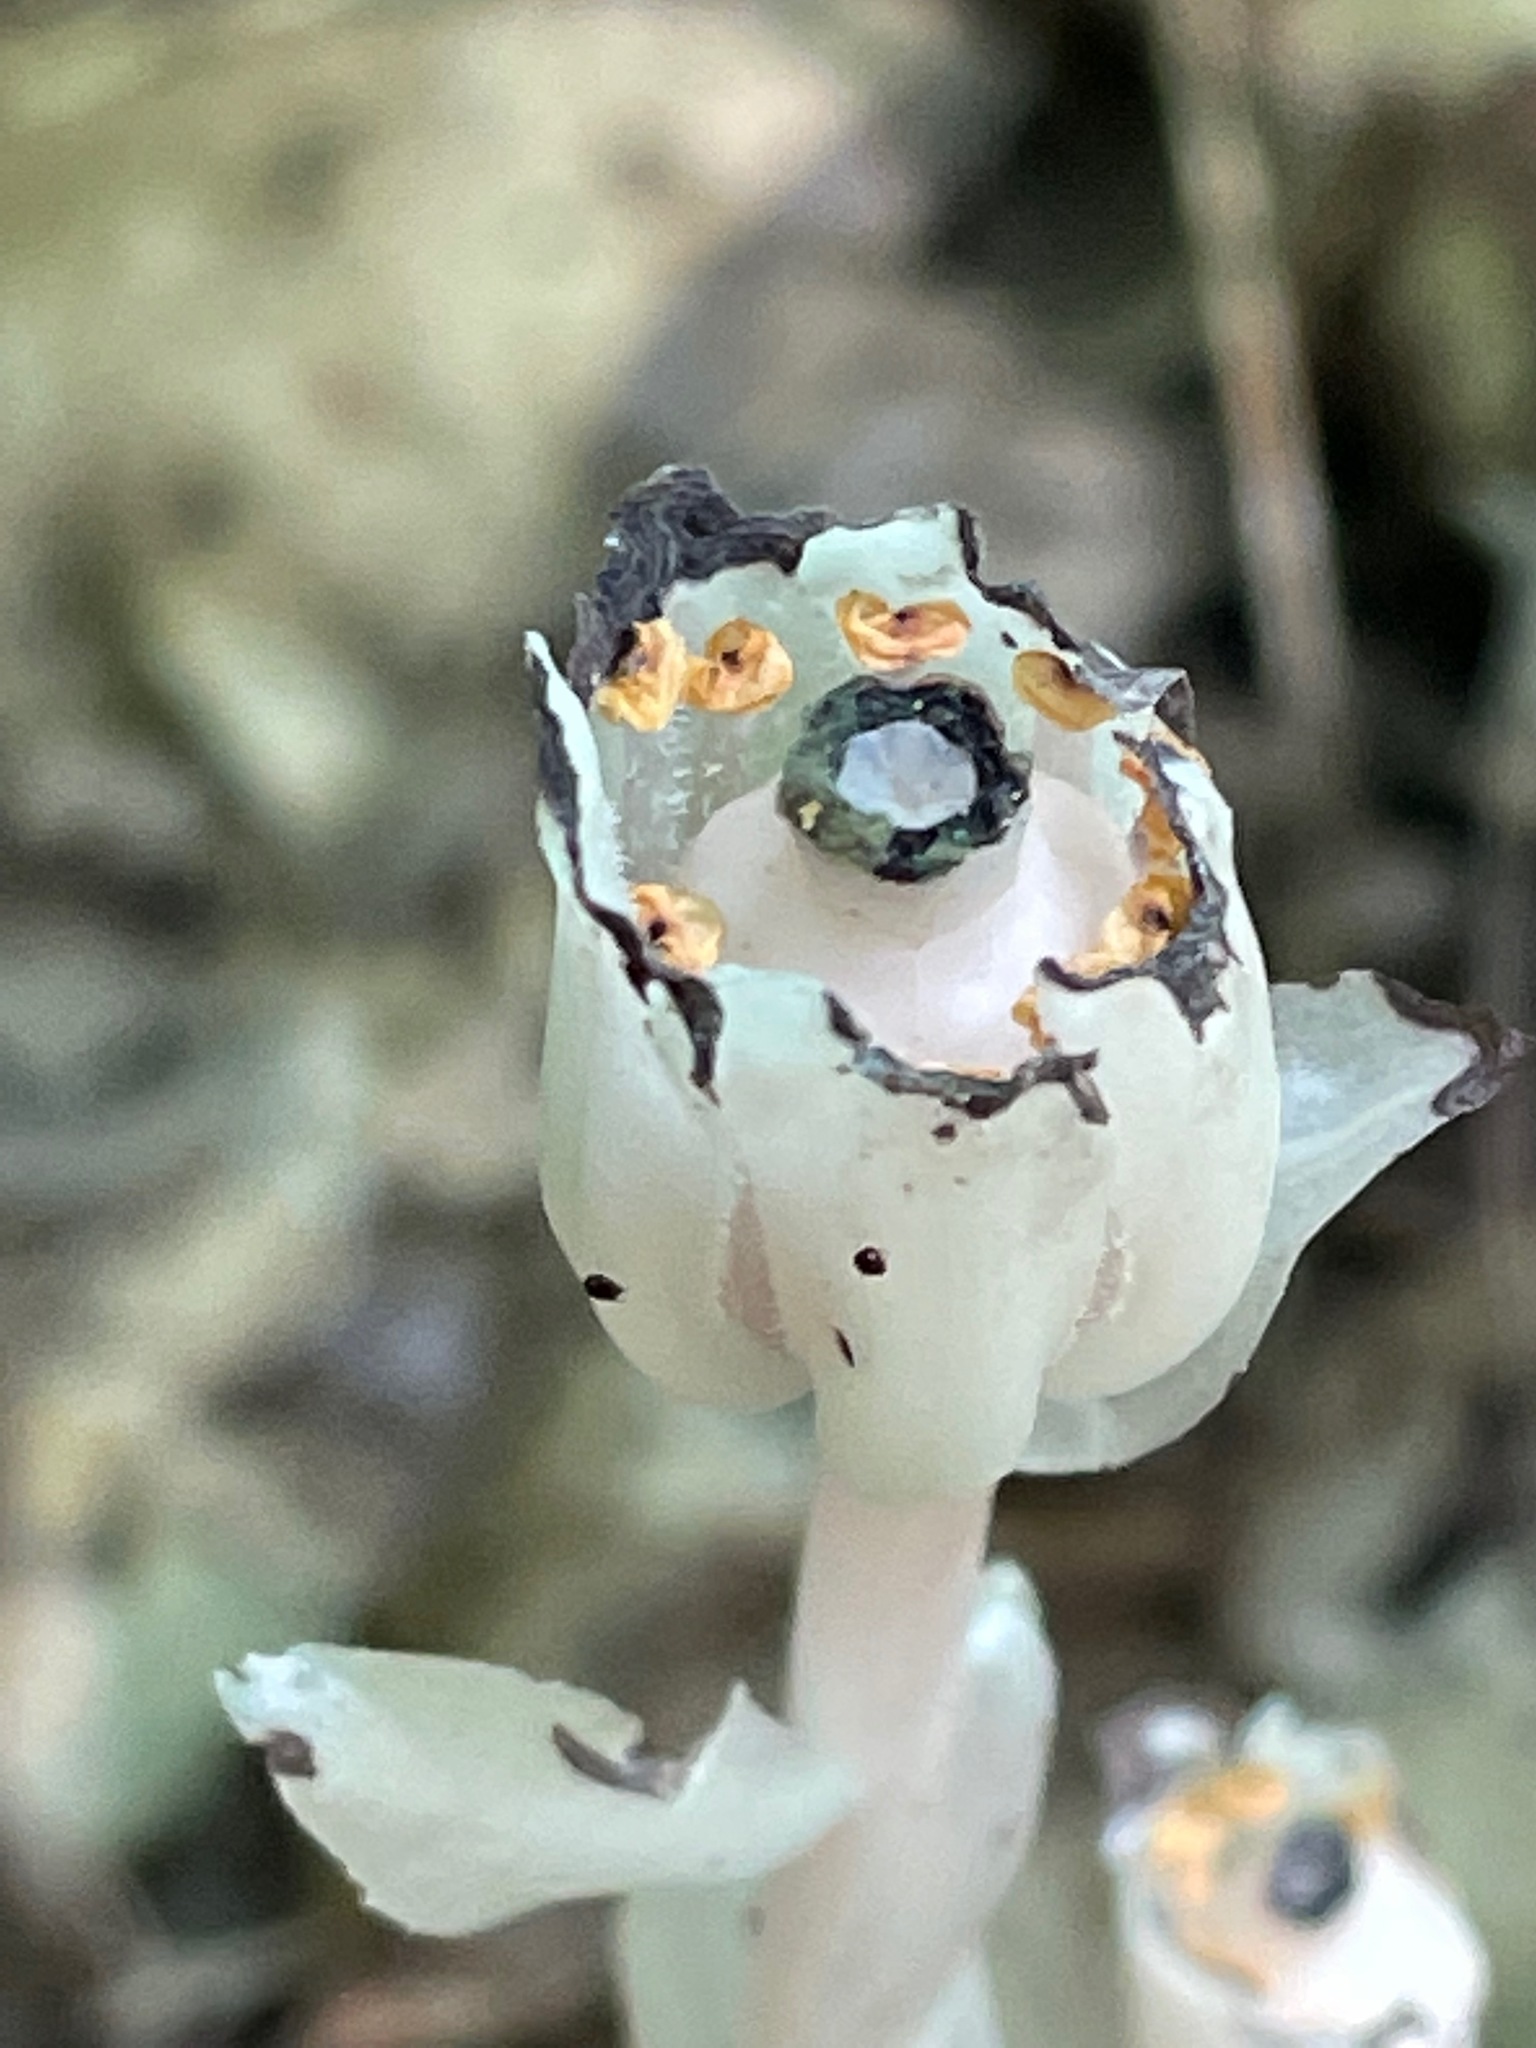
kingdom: Plantae
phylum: Tracheophyta
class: Magnoliopsida
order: Ericales
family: Ericaceae
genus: Monotropa
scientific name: Monotropa uniflora
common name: Convulsion root
